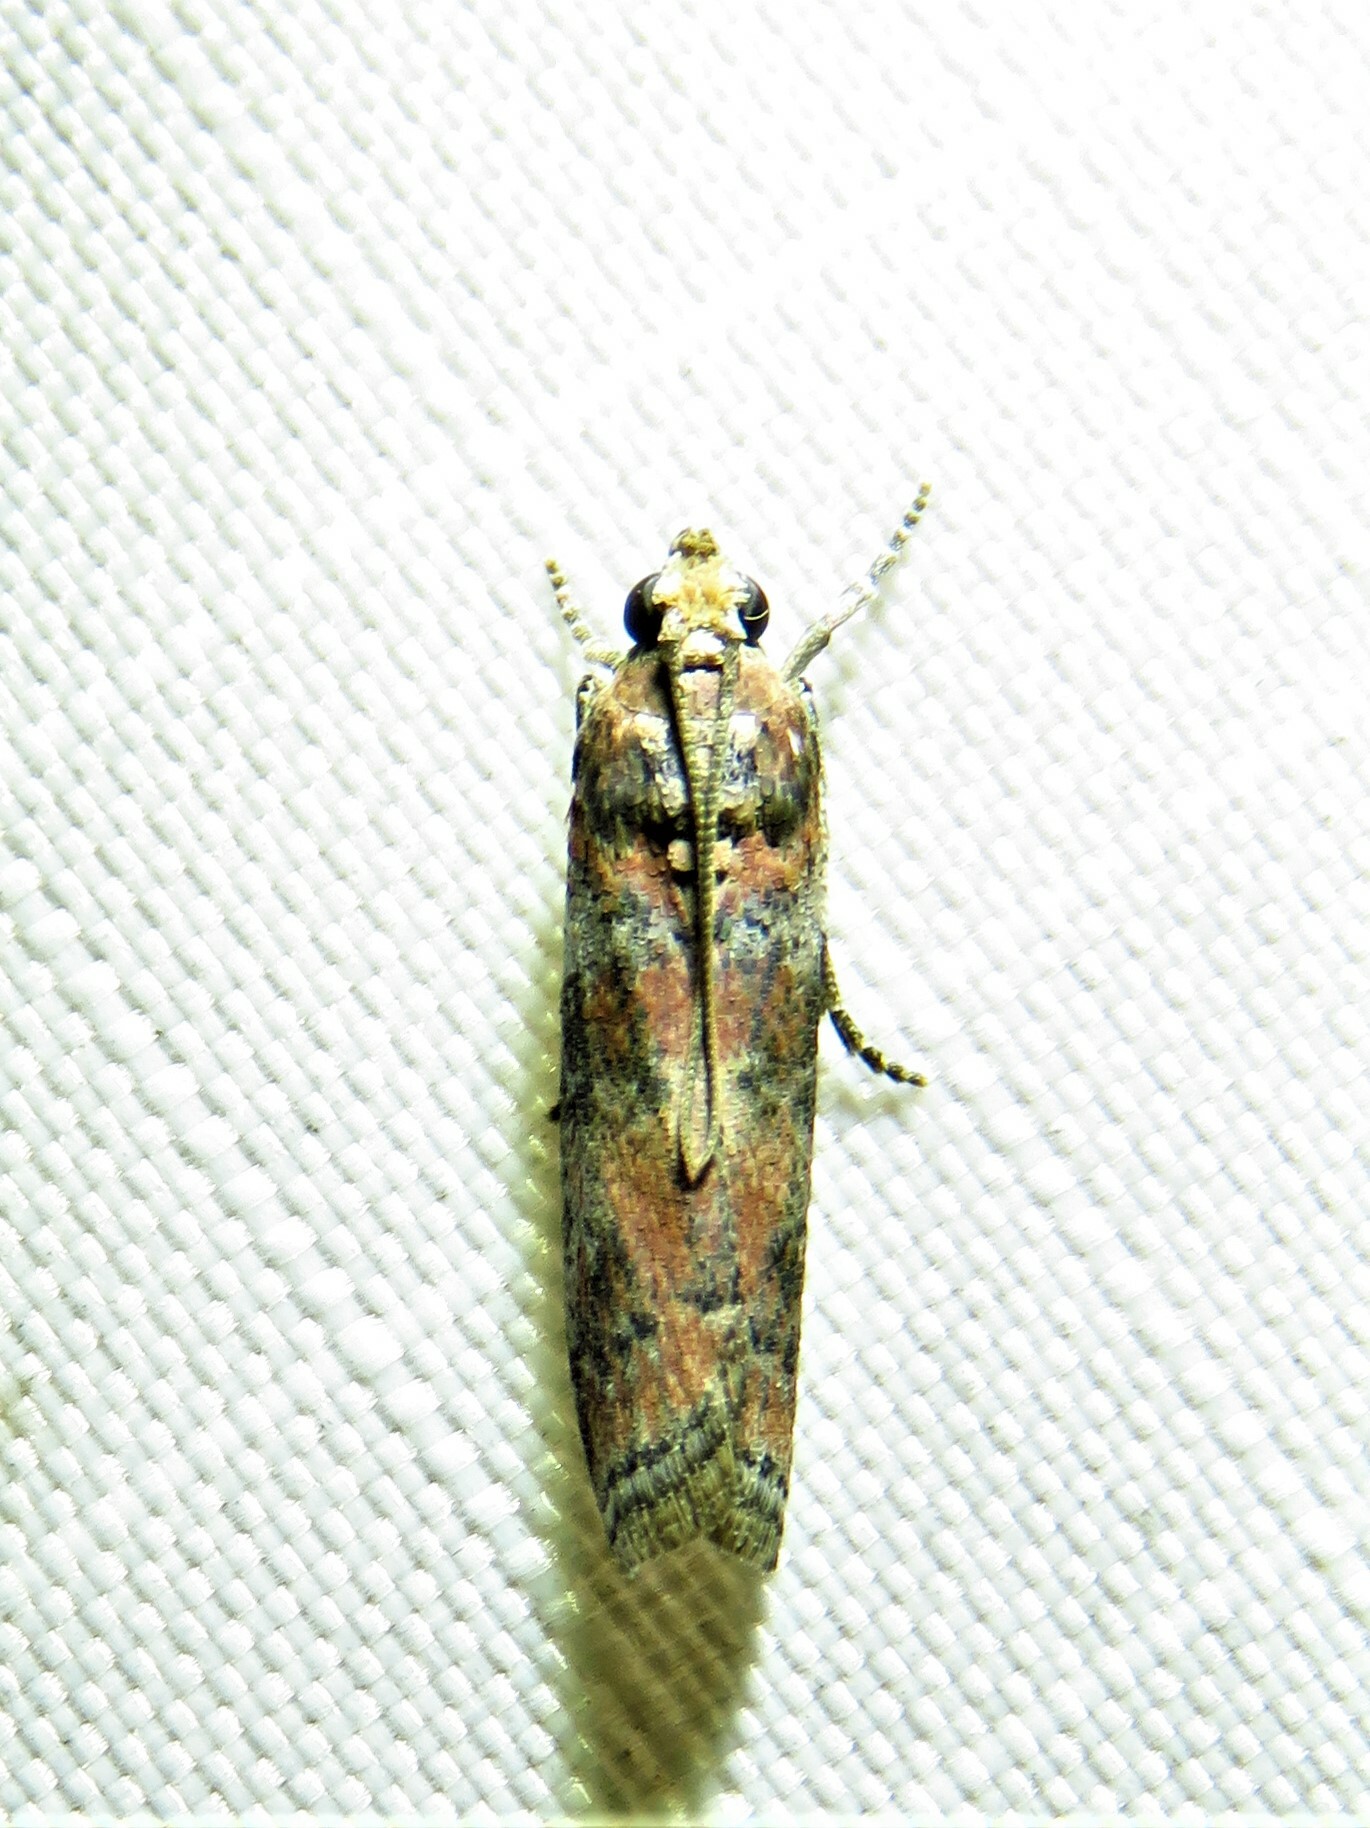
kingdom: Animalia
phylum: Arthropoda
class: Insecta
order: Lepidoptera
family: Pyralidae
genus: Sciota
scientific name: Sciota
